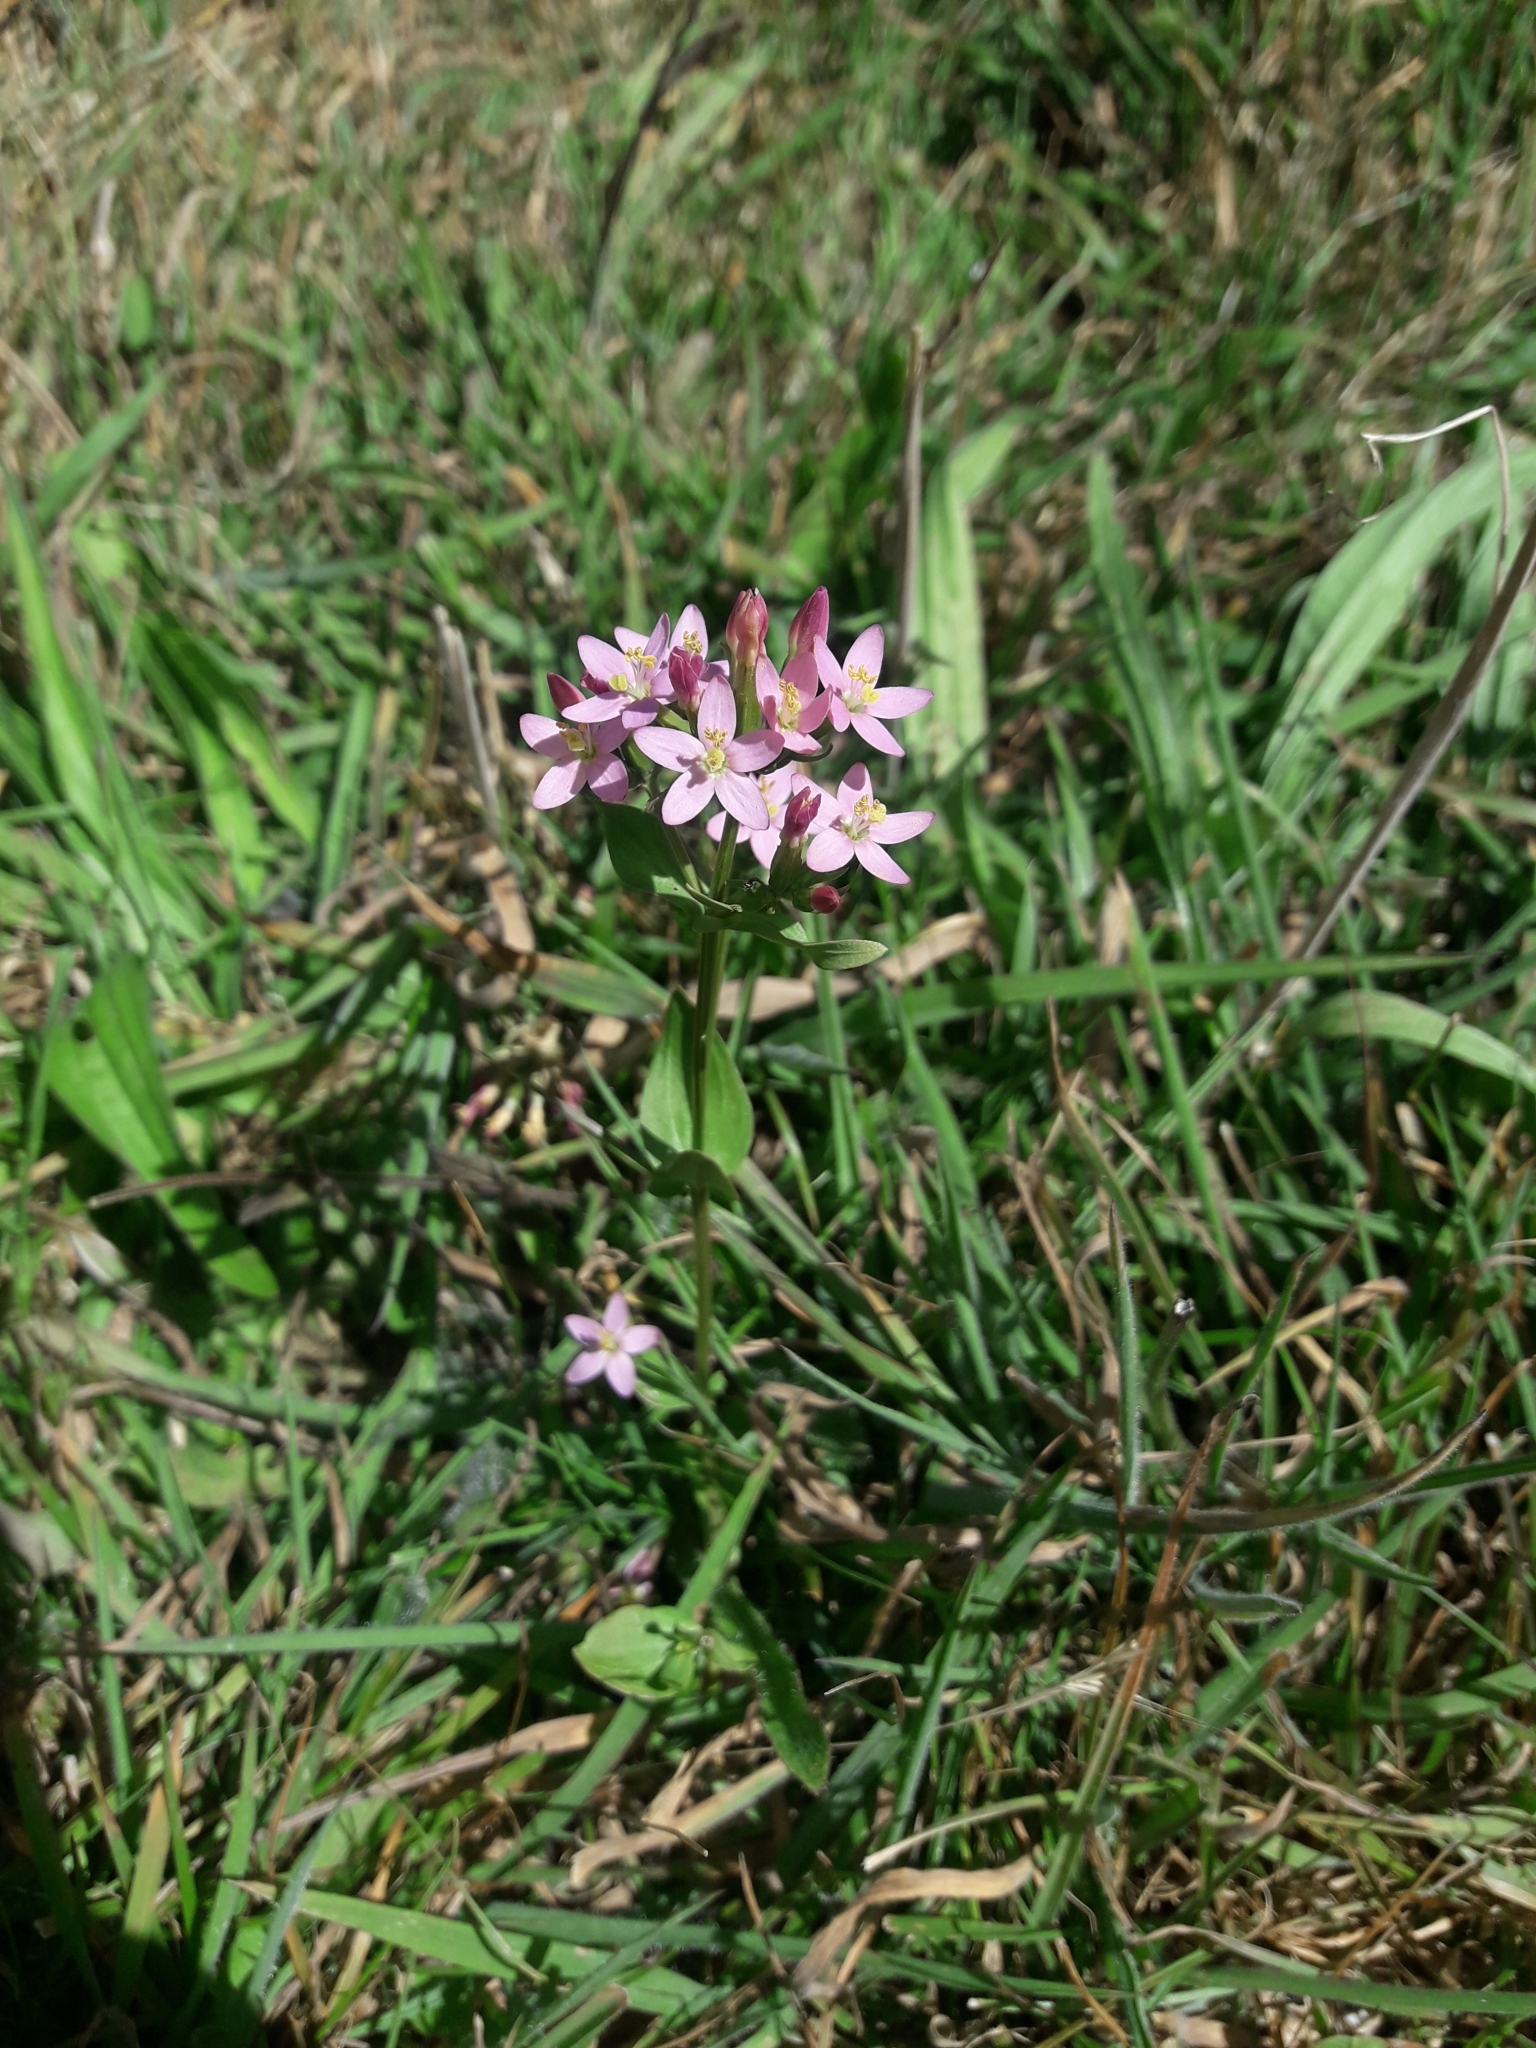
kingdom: Plantae
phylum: Tracheophyta
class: Magnoliopsida
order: Gentianales
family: Gentianaceae
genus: Centaurium
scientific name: Centaurium erythraea
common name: Common centaury
